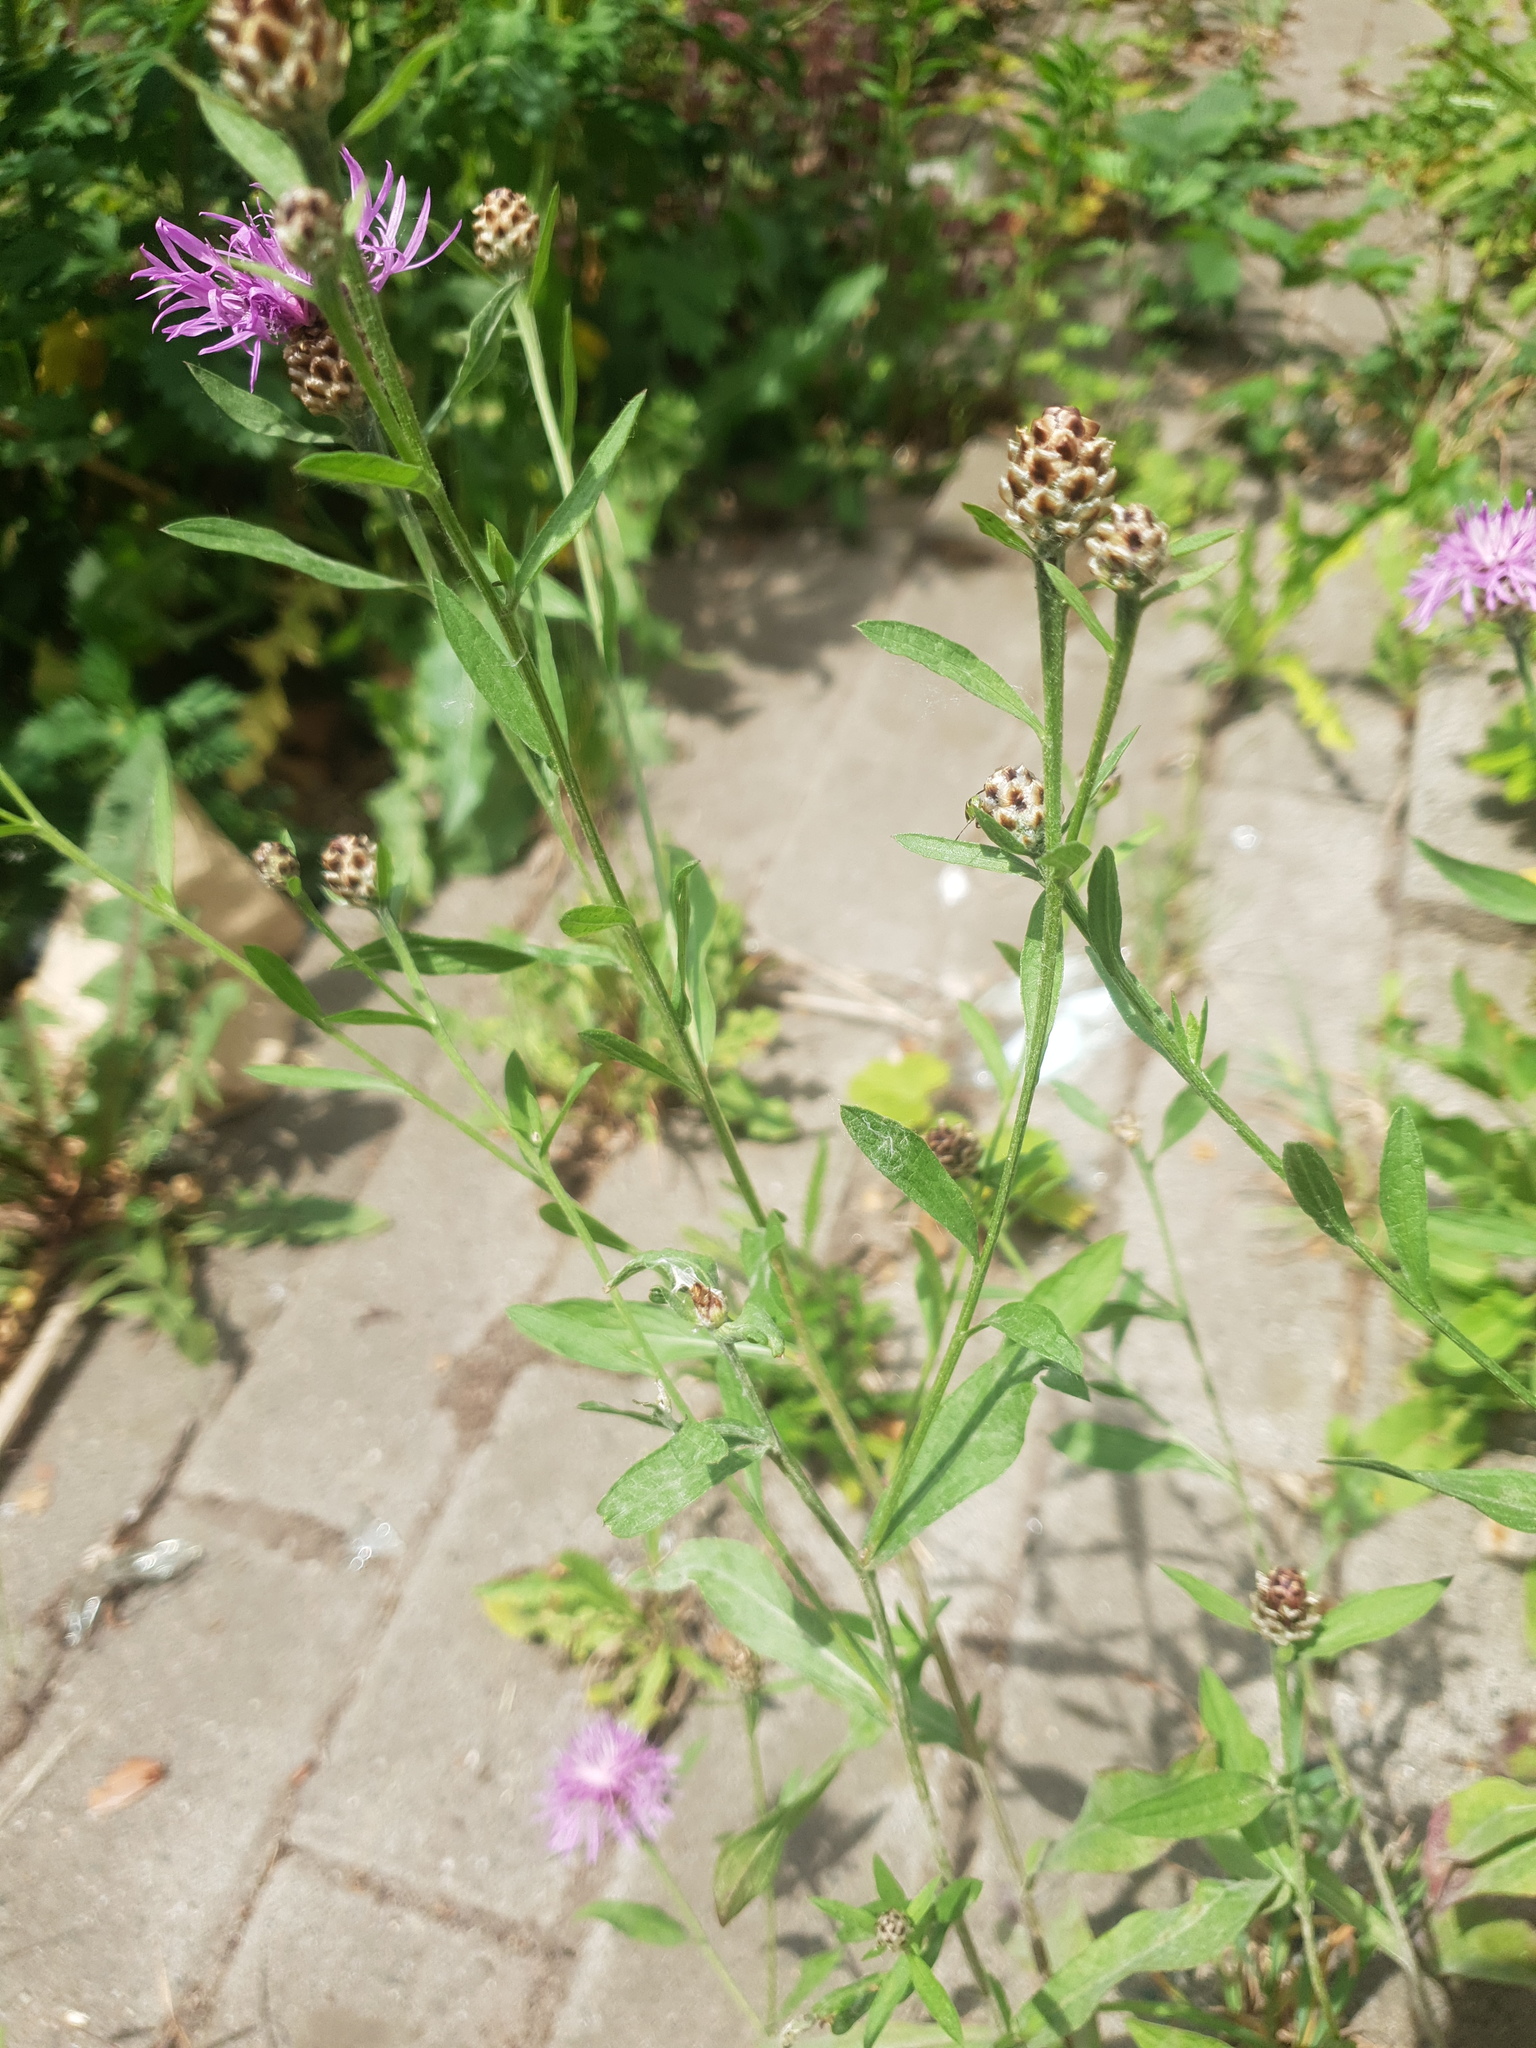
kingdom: Plantae
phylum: Tracheophyta
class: Magnoliopsida
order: Asterales
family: Asteraceae
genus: Centaurea
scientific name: Centaurea jacea
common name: Brown knapweed
